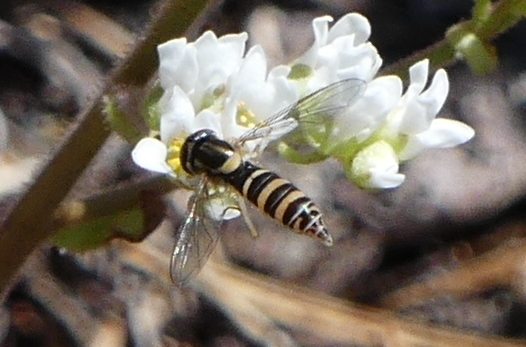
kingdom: Animalia
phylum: Arthropoda
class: Insecta
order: Diptera
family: Syrphidae
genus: Sphaerophoria
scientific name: Sphaerophoria
